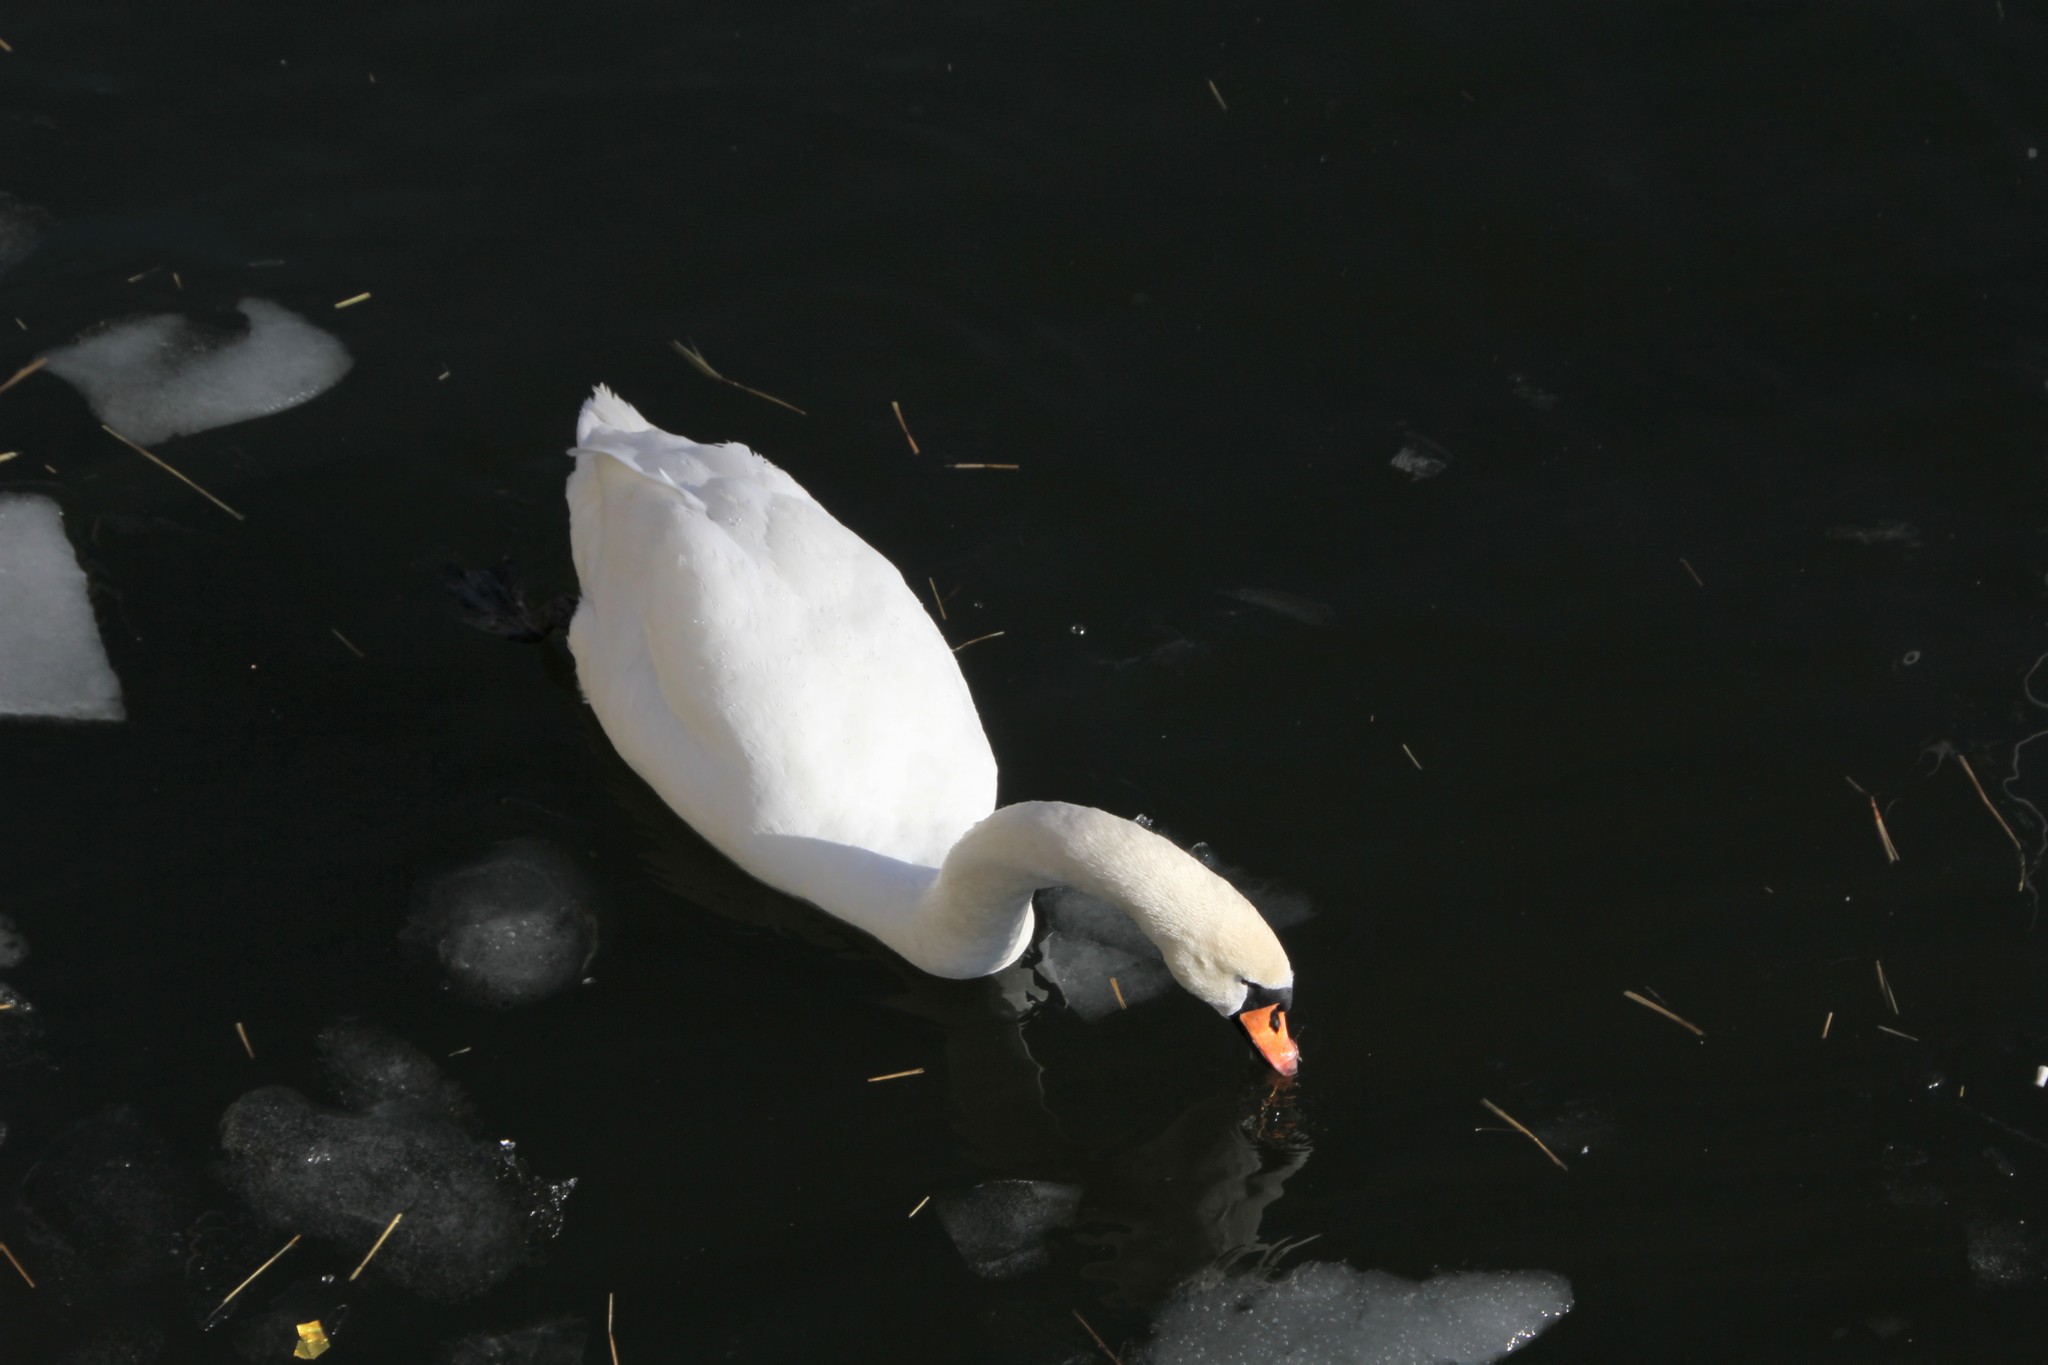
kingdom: Animalia
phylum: Chordata
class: Aves
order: Anseriformes
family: Anatidae
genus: Cygnus
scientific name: Cygnus olor
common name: Mute swan
